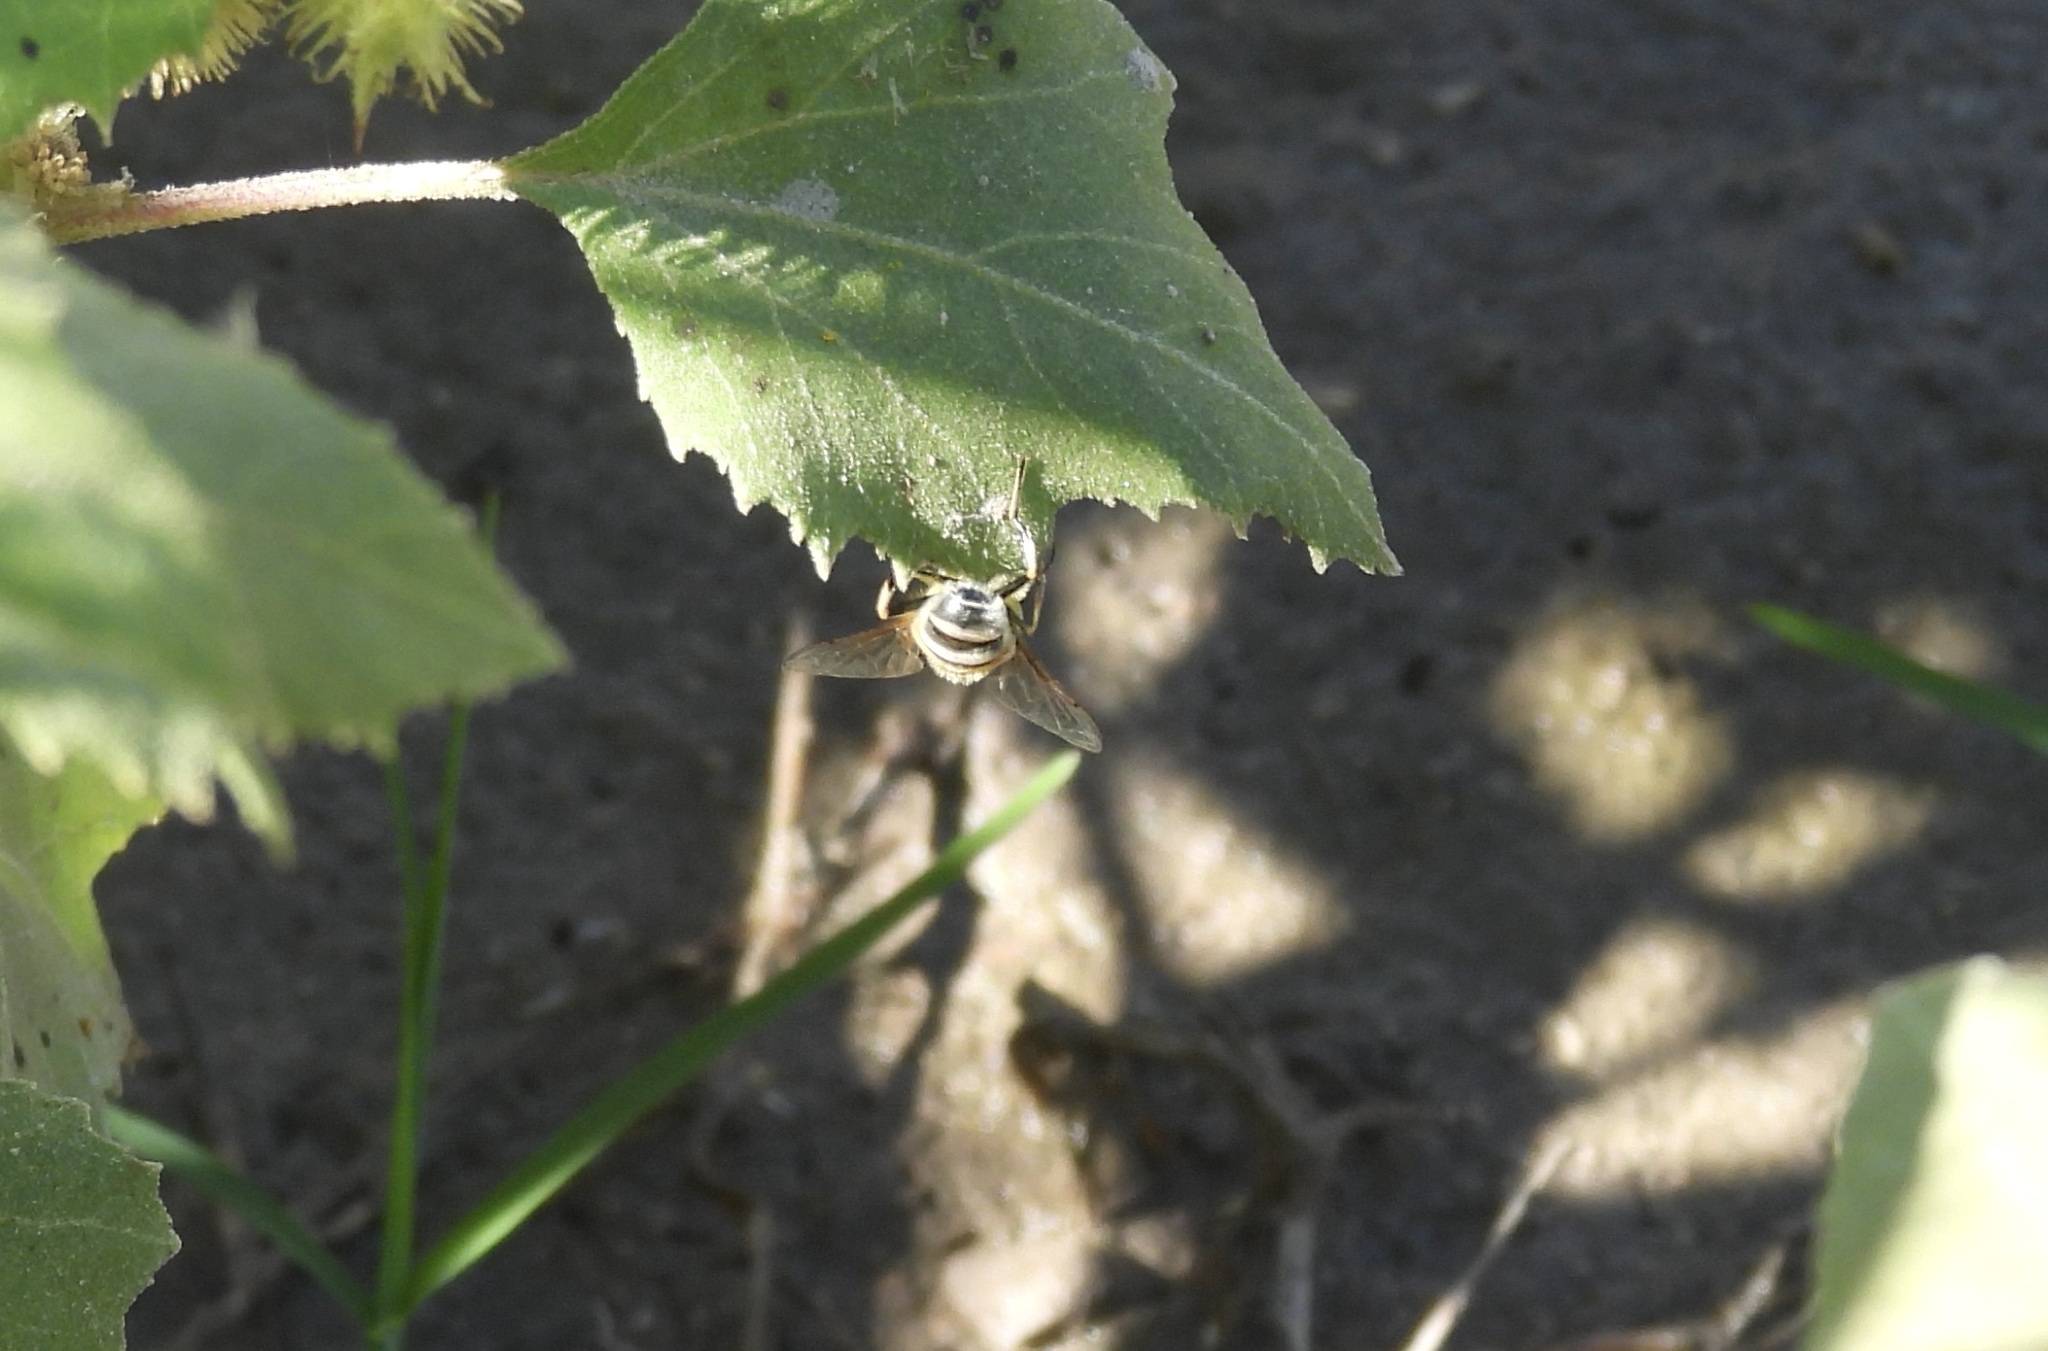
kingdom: Animalia
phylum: Arthropoda
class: Insecta
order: Diptera
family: Syrphidae
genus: Eristalis
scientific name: Eristalis stipator
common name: Yellow-shouldered drone fly
